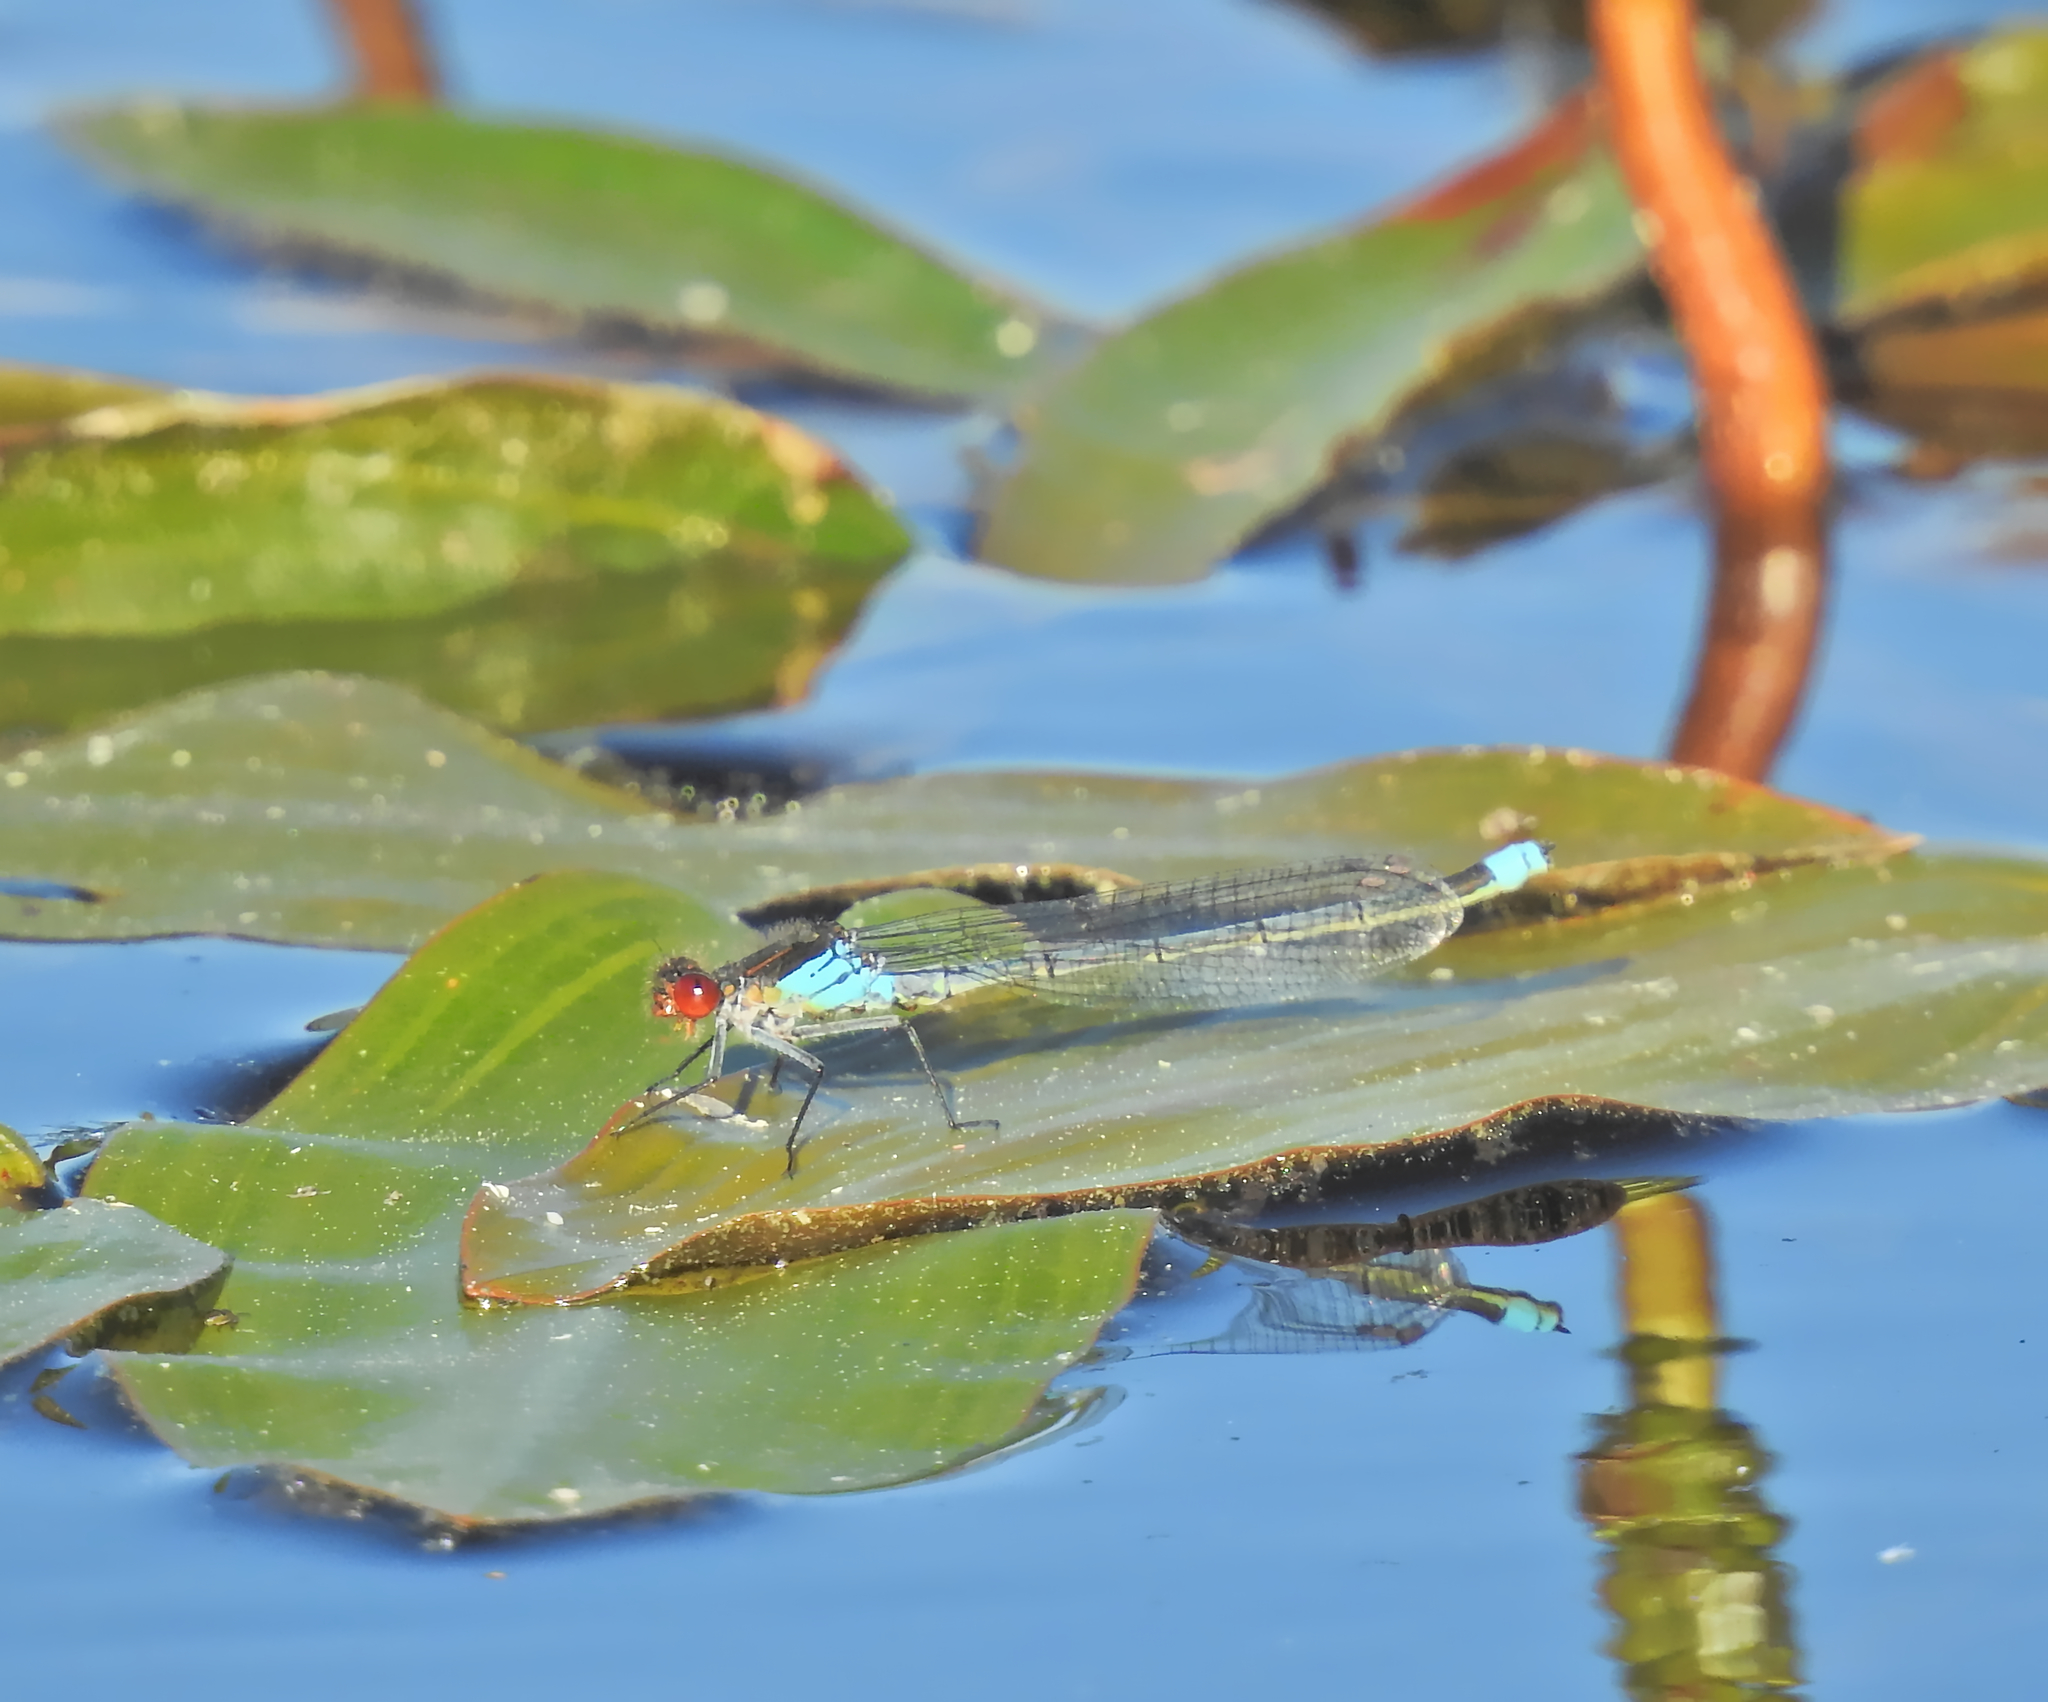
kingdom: Animalia
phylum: Arthropoda
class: Insecta
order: Odonata
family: Coenagrionidae
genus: Erythromma
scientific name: Erythromma najas
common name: Red-eyed damselfly
